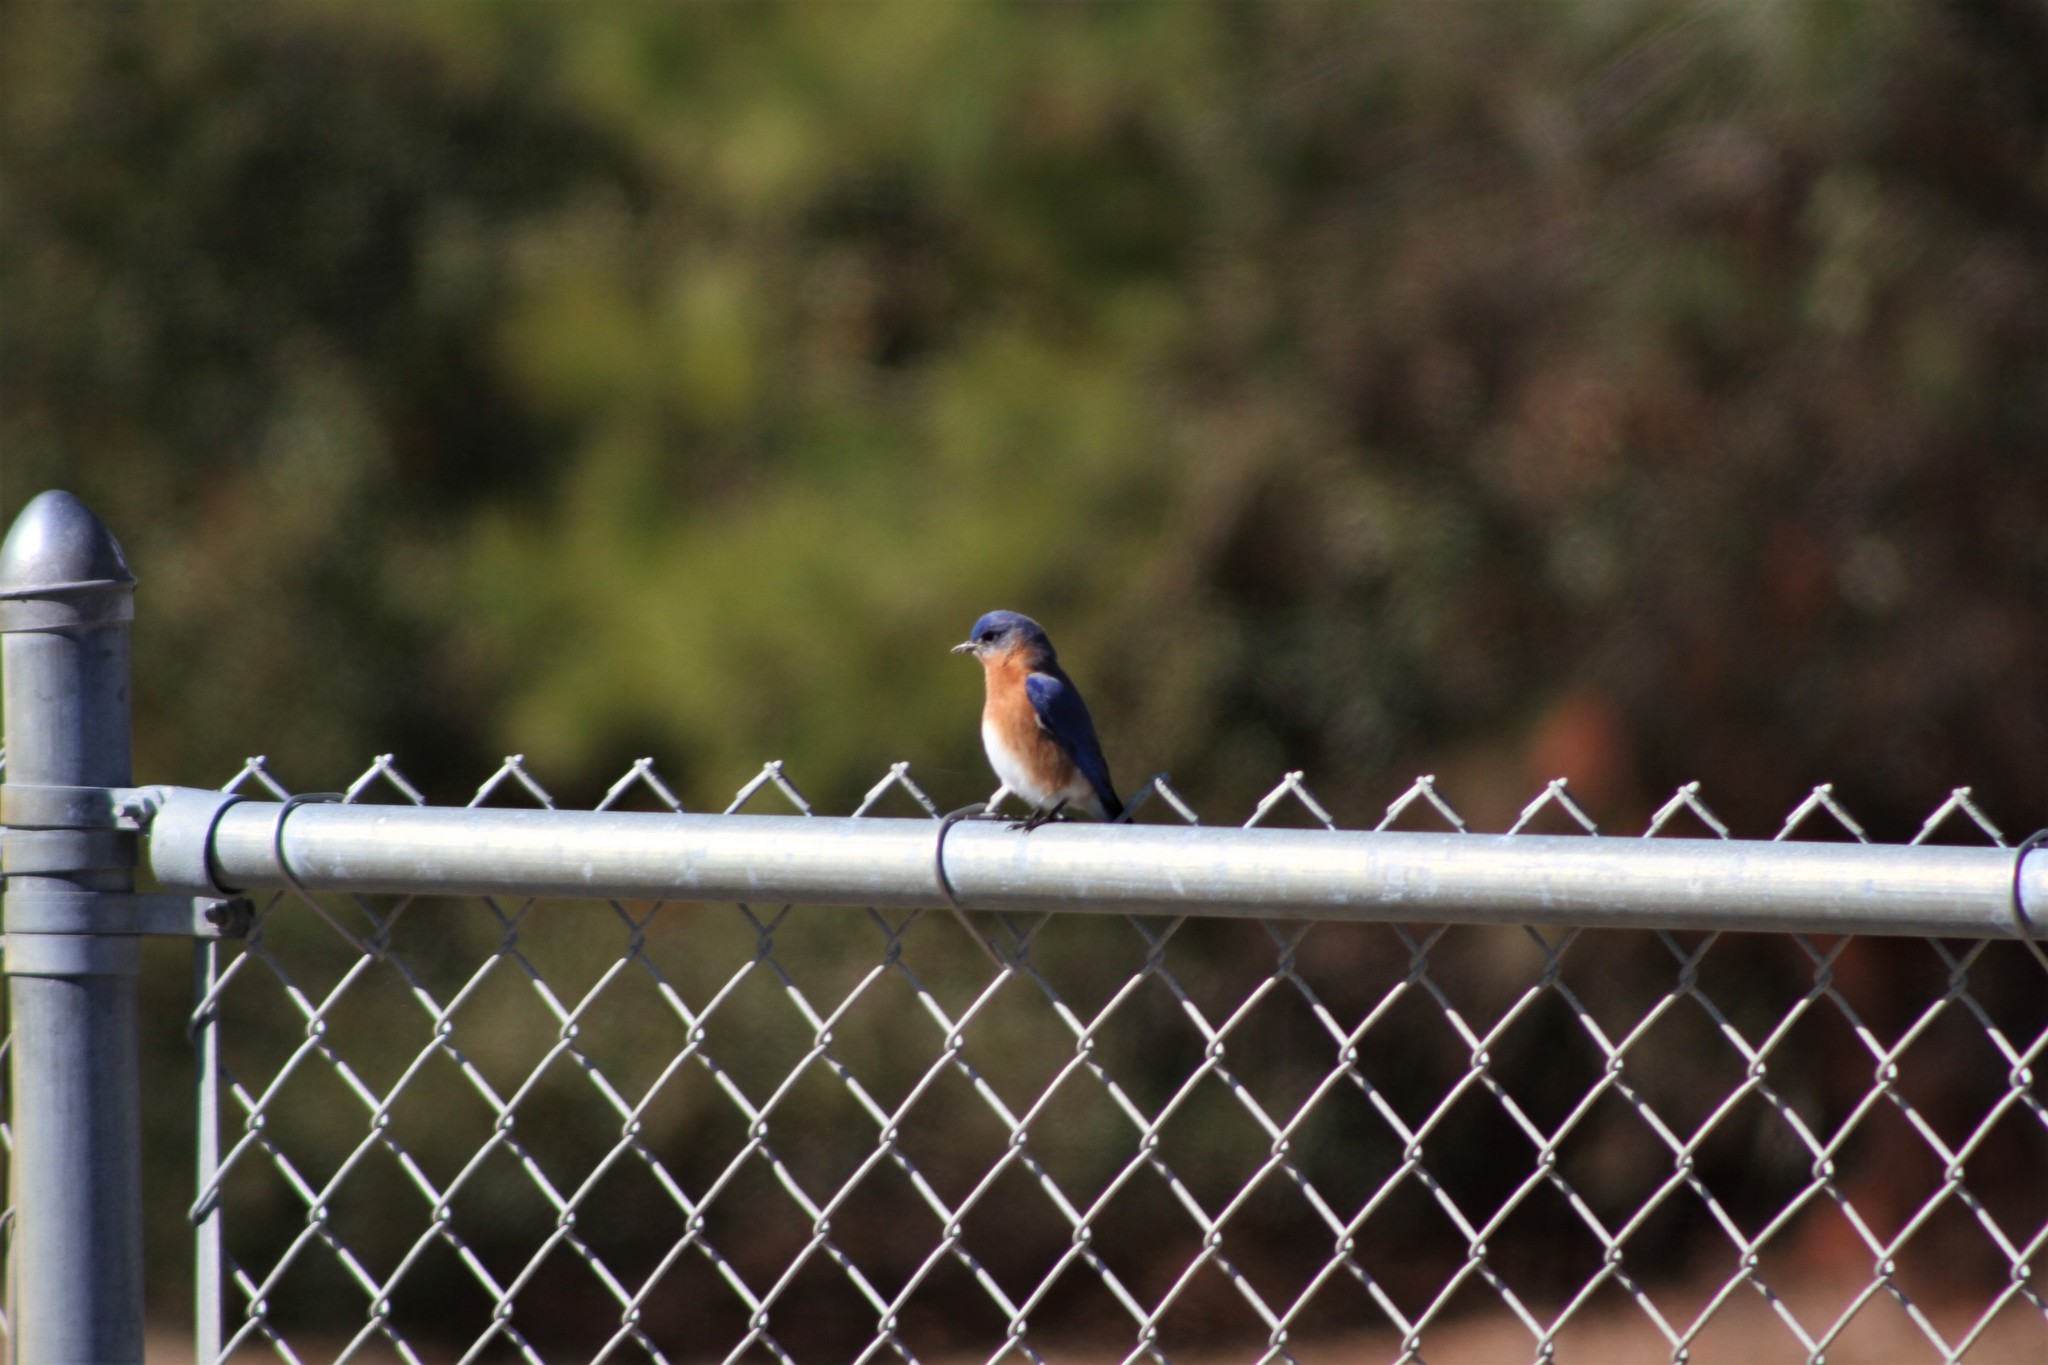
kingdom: Animalia
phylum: Chordata
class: Aves
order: Passeriformes
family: Turdidae
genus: Sialia
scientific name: Sialia sialis
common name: Eastern bluebird
